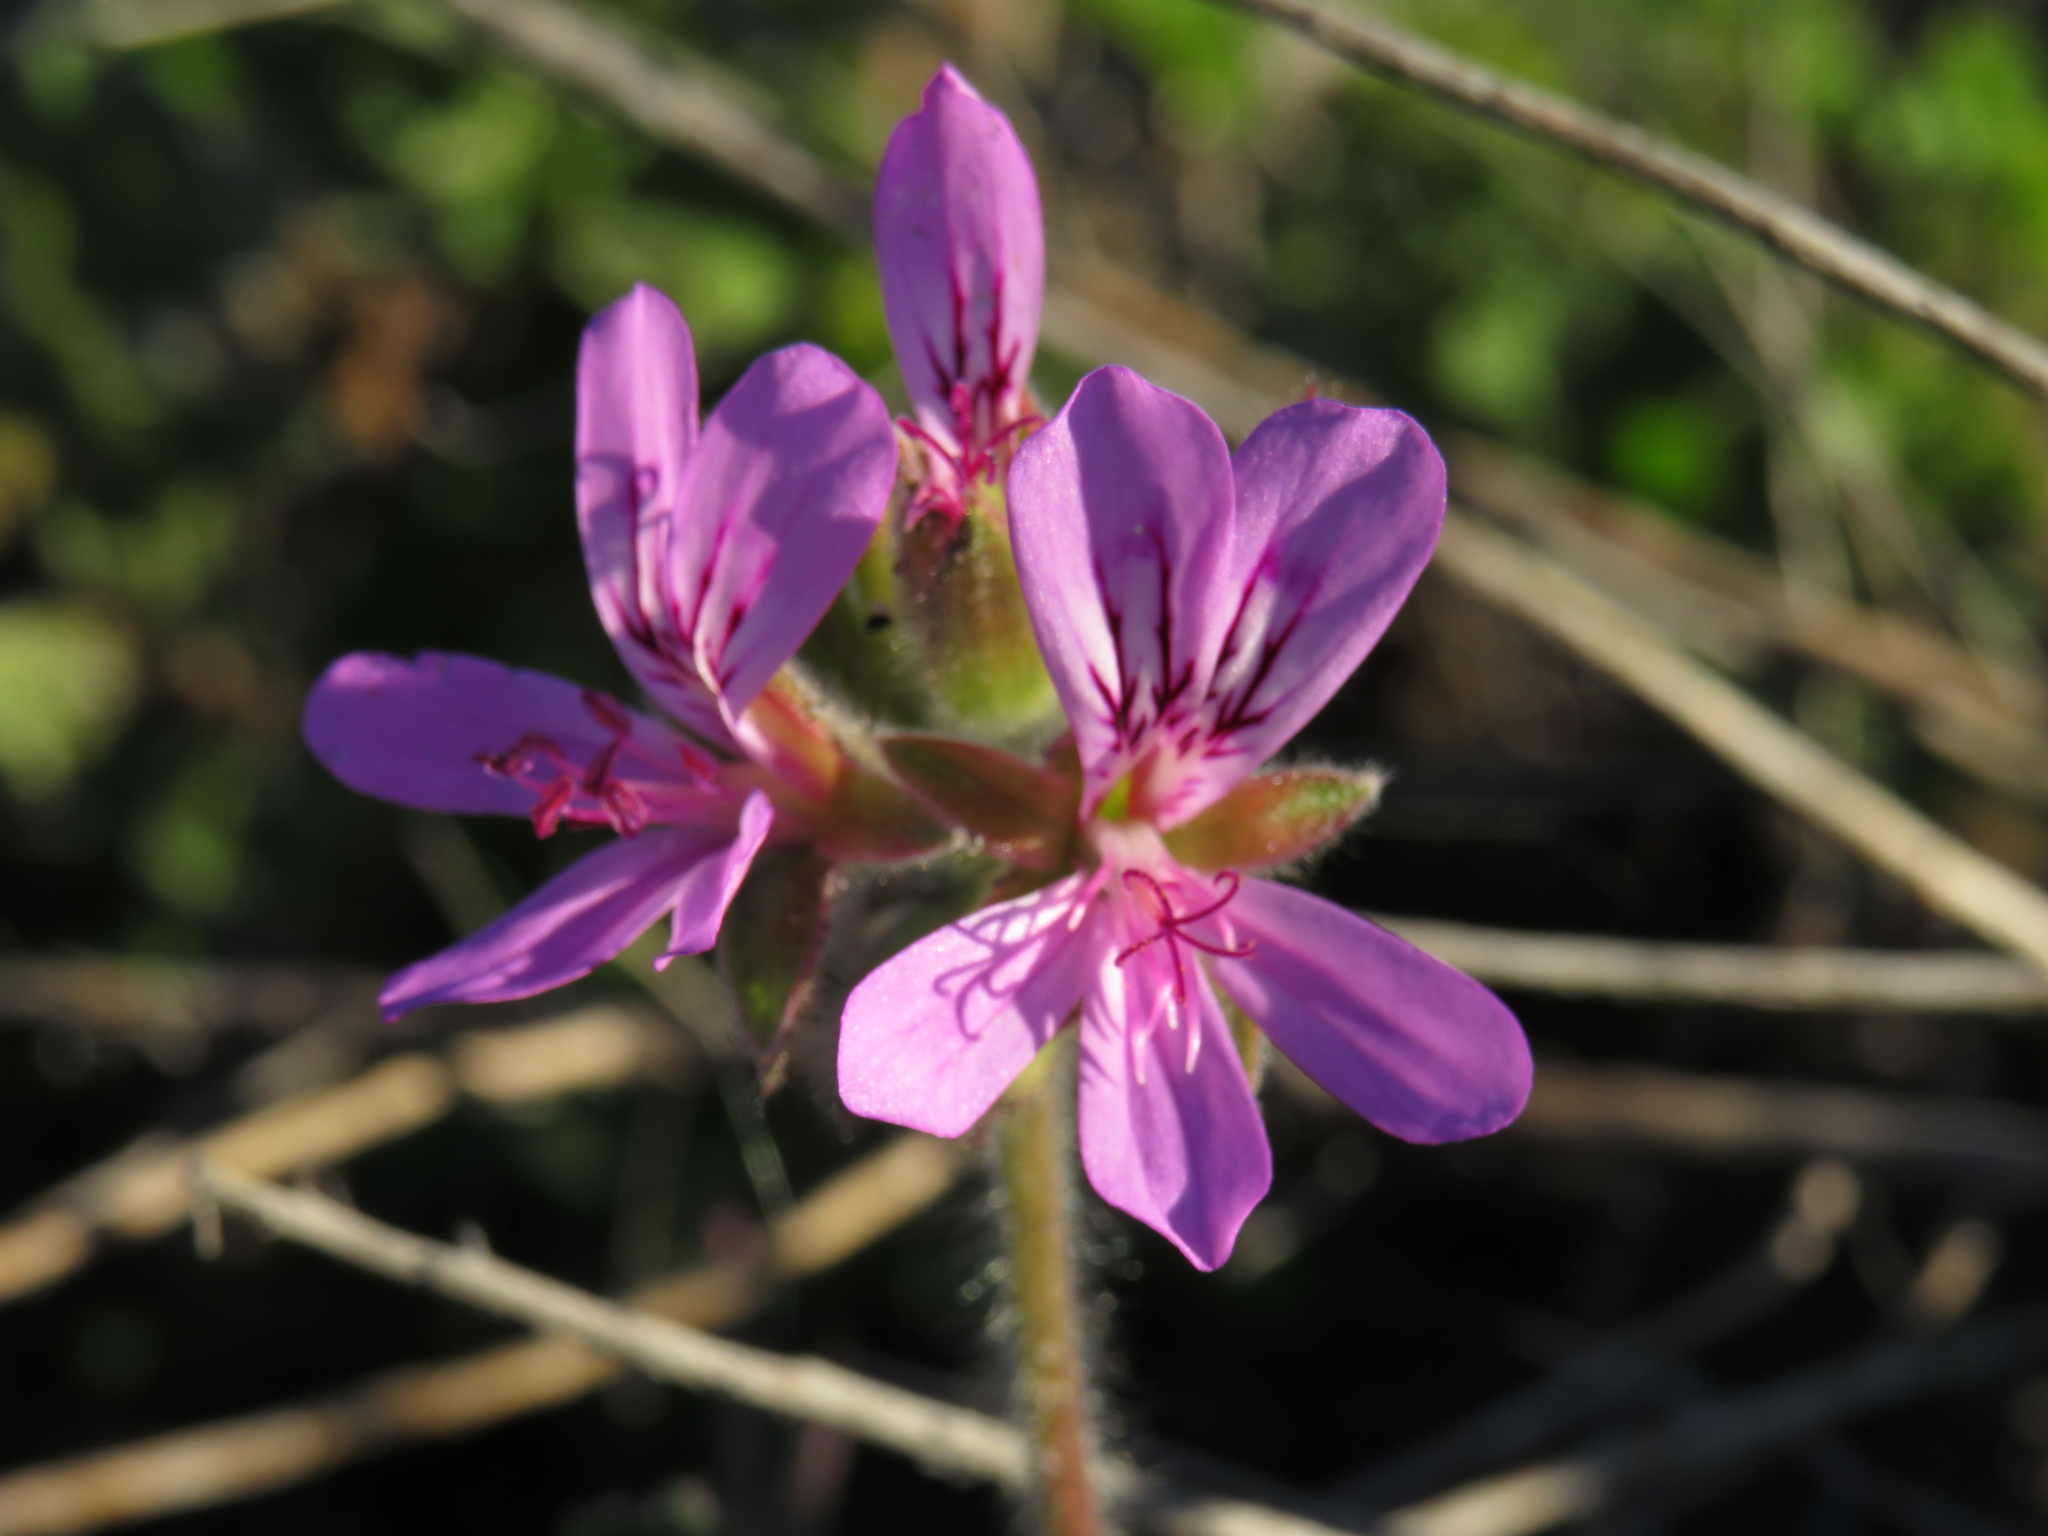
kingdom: Plantae
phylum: Tracheophyta
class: Magnoliopsida
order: Geraniales
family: Geraniaceae
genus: Pelargonium
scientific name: Pelargonium capitatum
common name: Rose scented geranium
